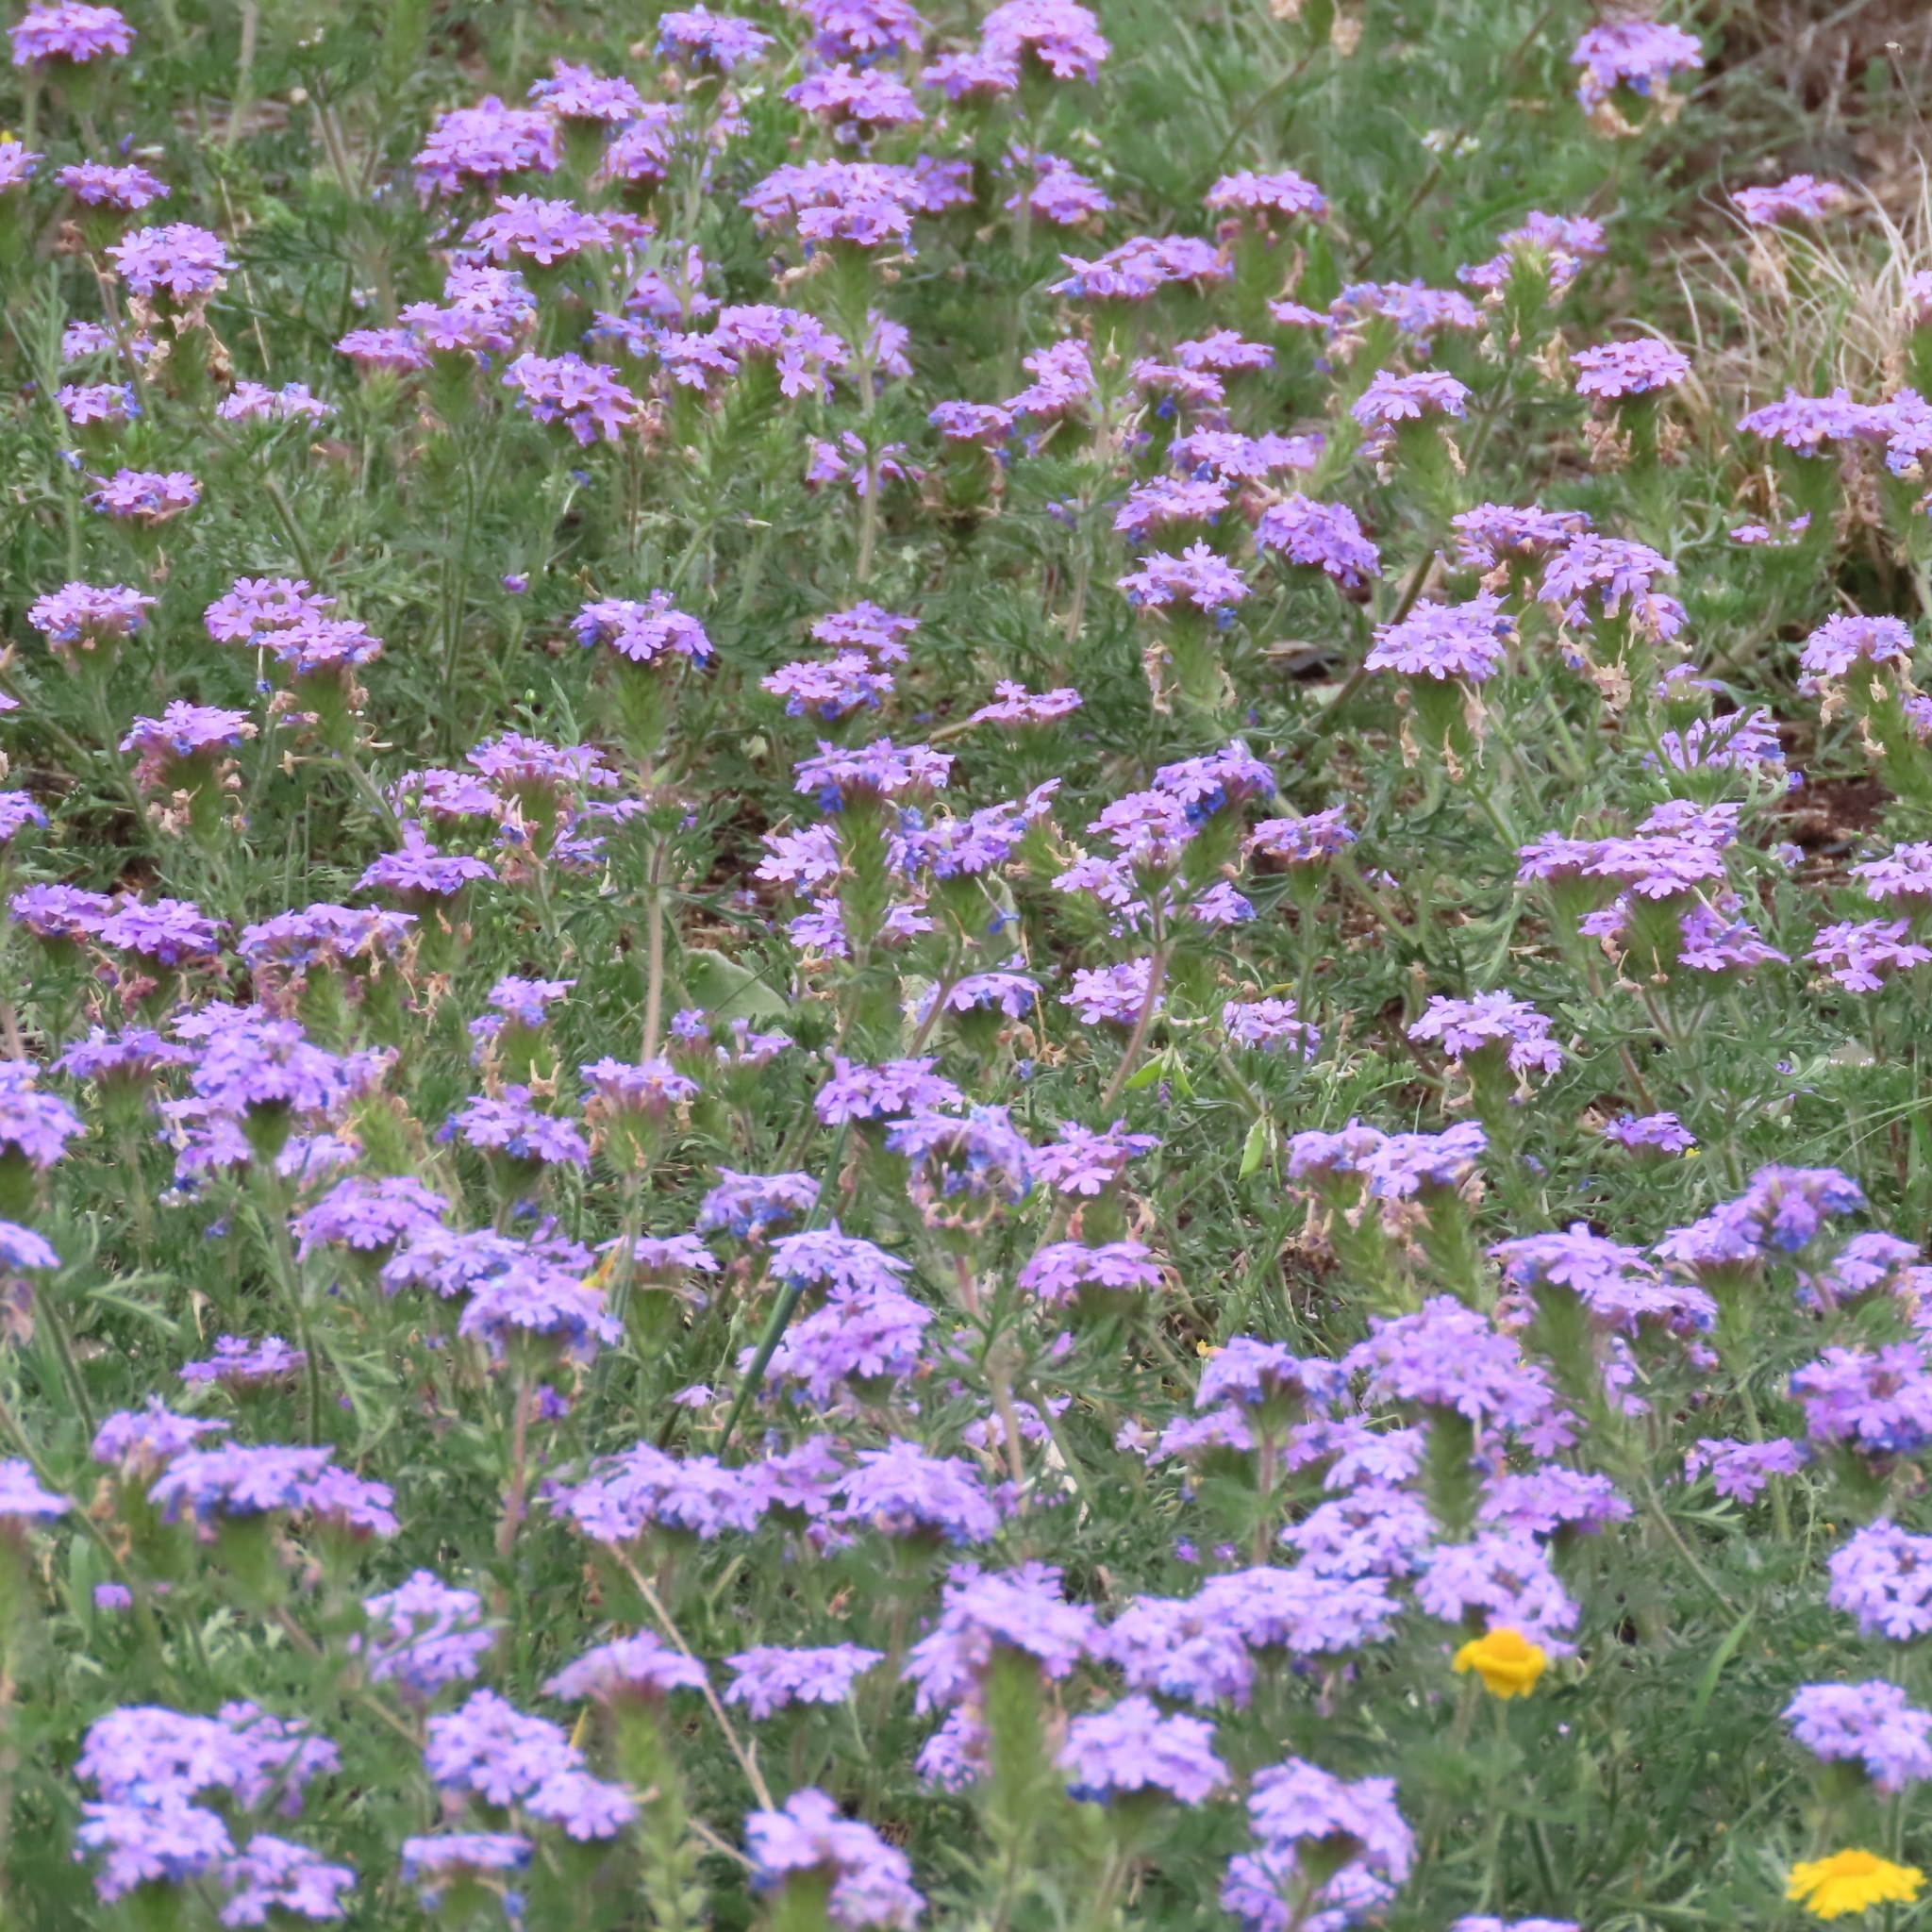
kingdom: Plantae
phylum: Tracheophyta
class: Magnoliopsida
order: Lamiales
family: Verbenaceae
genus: Verbena
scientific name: Verbena bipinnatifida
